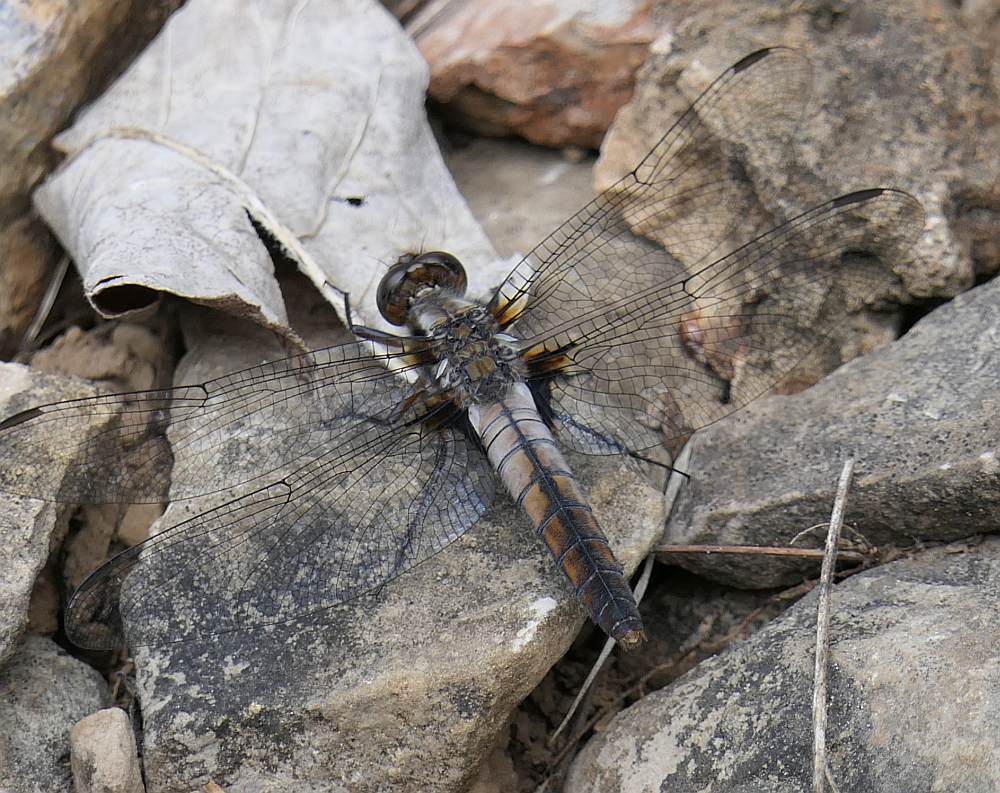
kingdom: Animalia
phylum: Arthropoda
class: Insecta
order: Odonata
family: Libellulidae
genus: Ladona
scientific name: Ladona julia
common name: Chalk-fronted corporal
